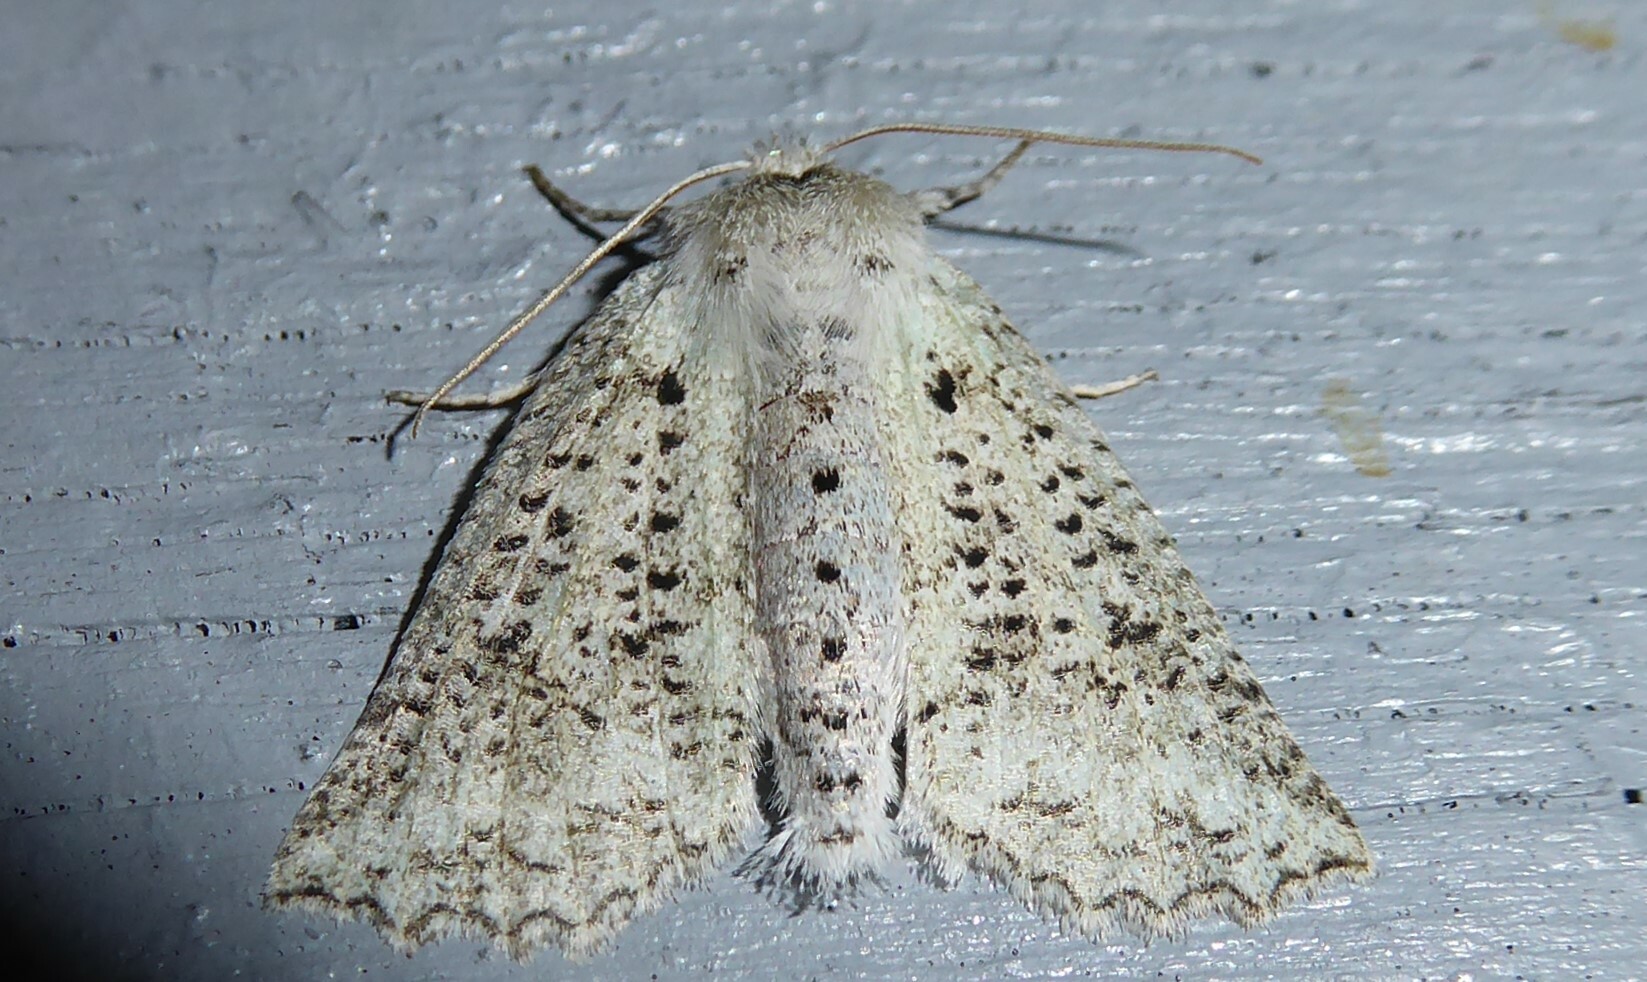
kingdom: Animalia
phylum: Arthropoda
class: Insecta
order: Lepidoptera
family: Geometridae
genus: Declana
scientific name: Declana floccosa
